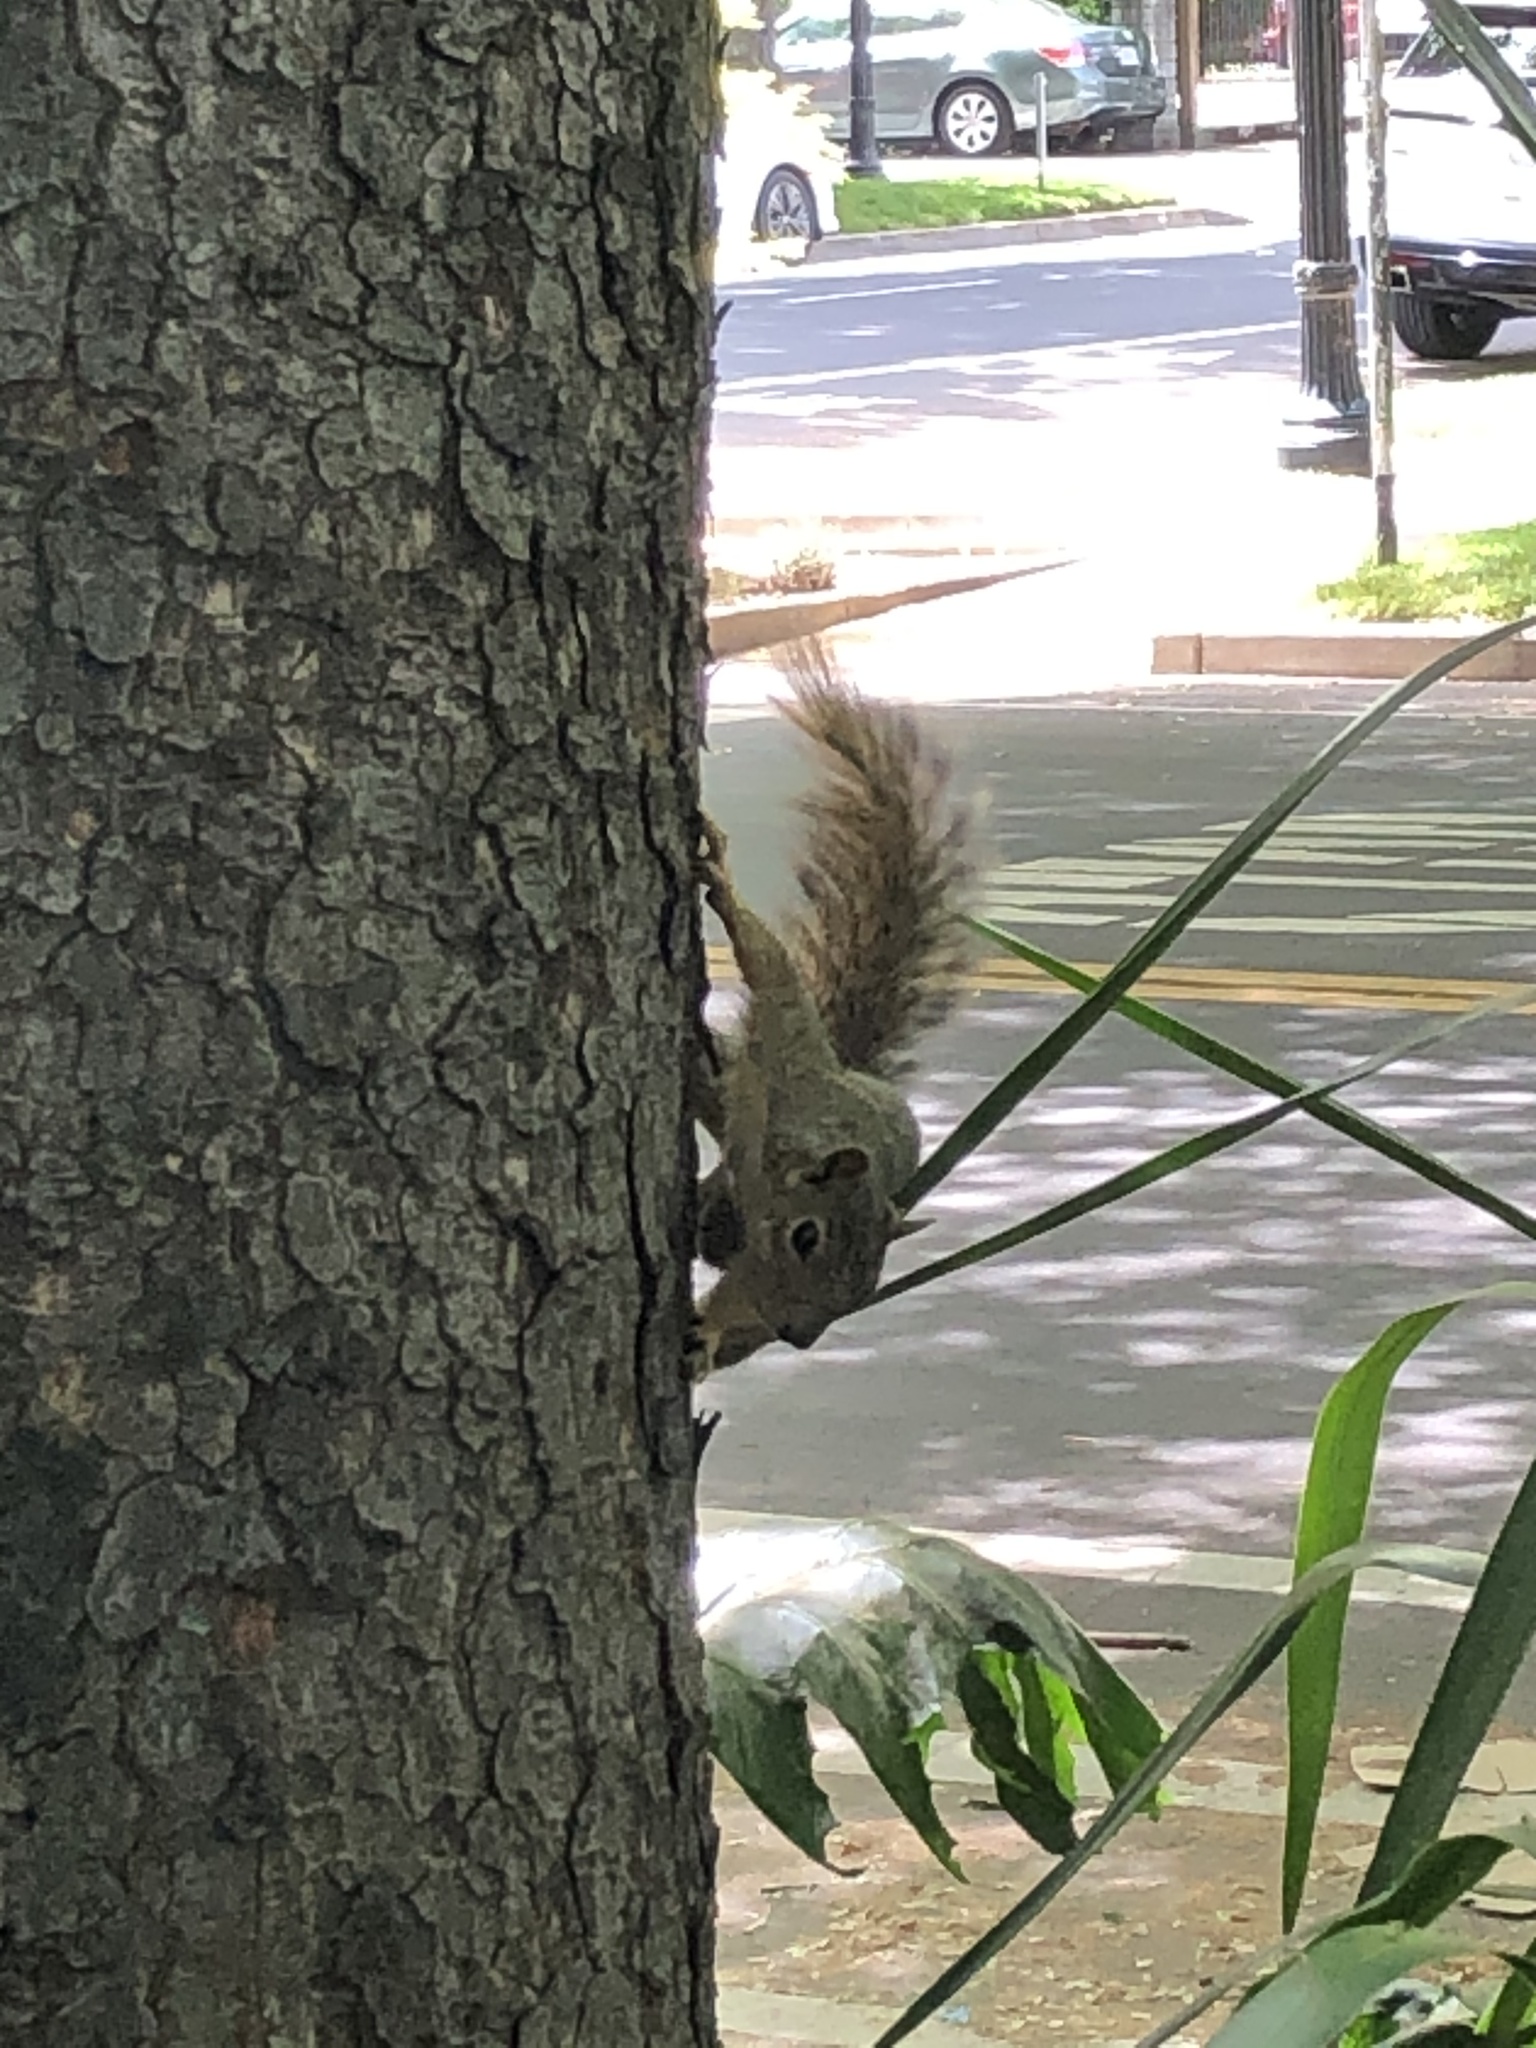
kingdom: Animalia
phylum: Chordata
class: Mammalia
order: Rodentia
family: Sciuridae
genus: Sciurus
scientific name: Sciurus niger
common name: Fox squirrel
